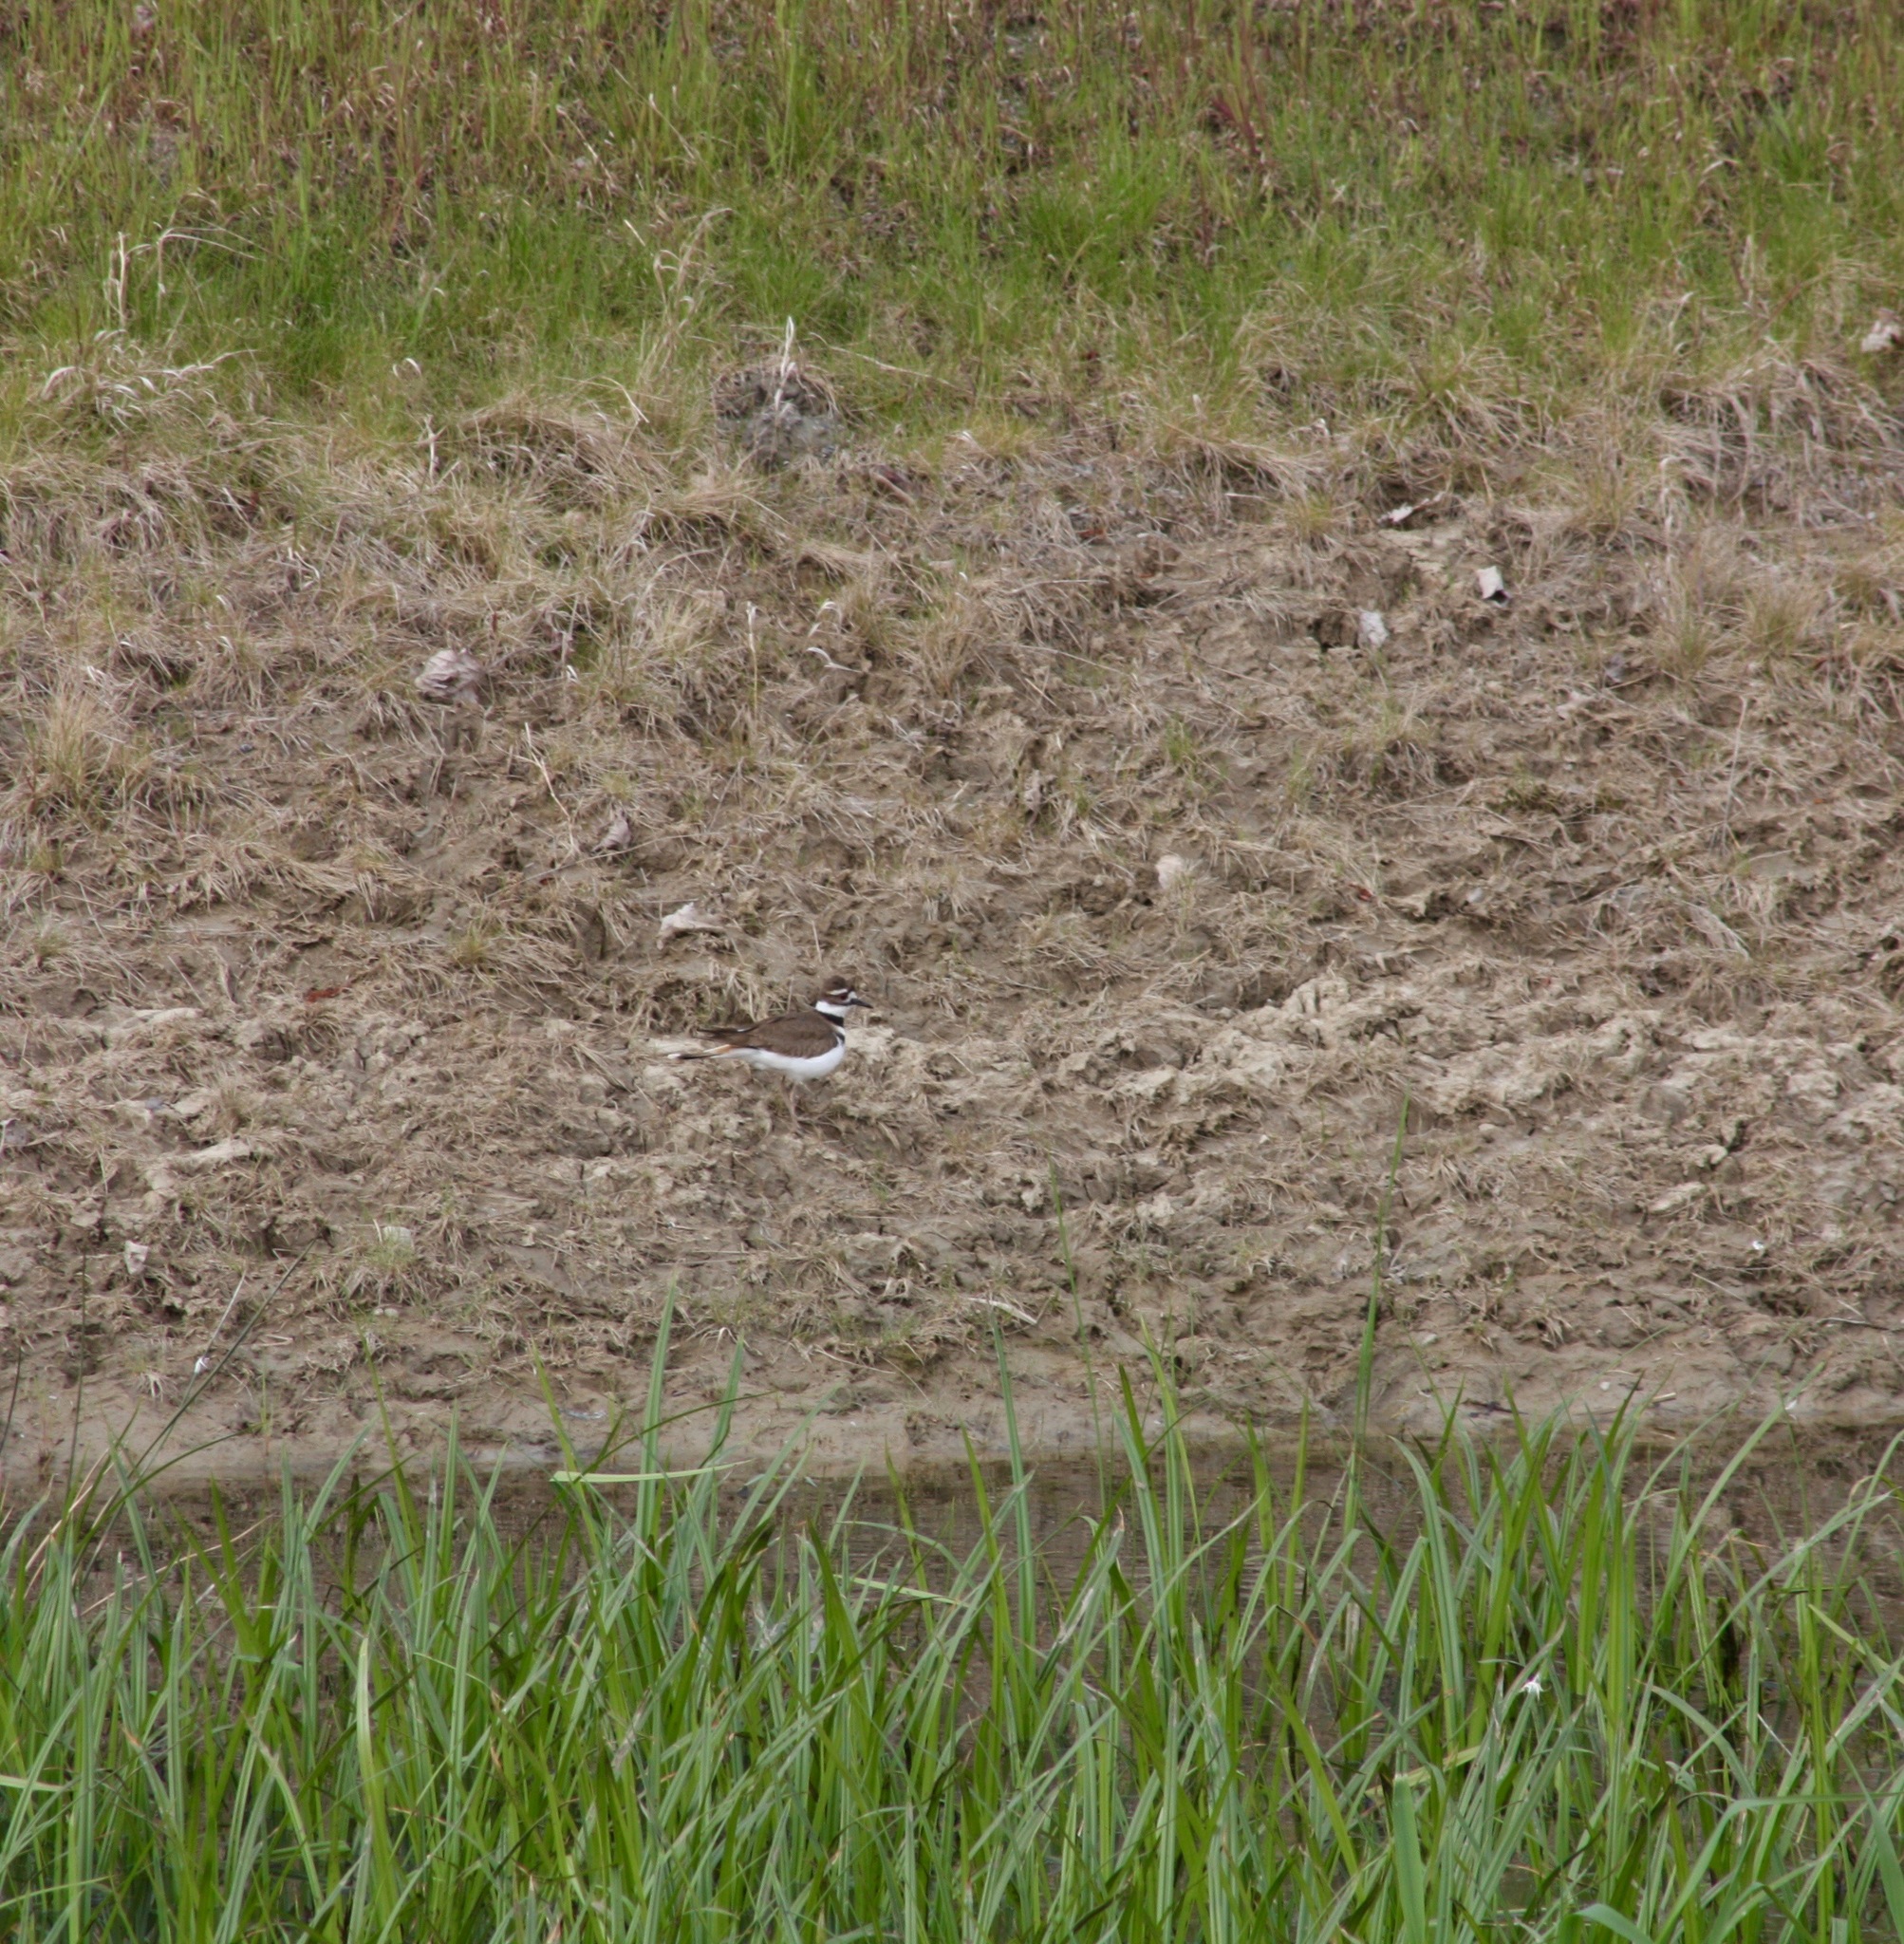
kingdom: Animalia
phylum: Chordata
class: Aves
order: Charadriiformes
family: Charadriidae
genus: Charadrius
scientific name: Charadrius vociferus
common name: Killdeer
